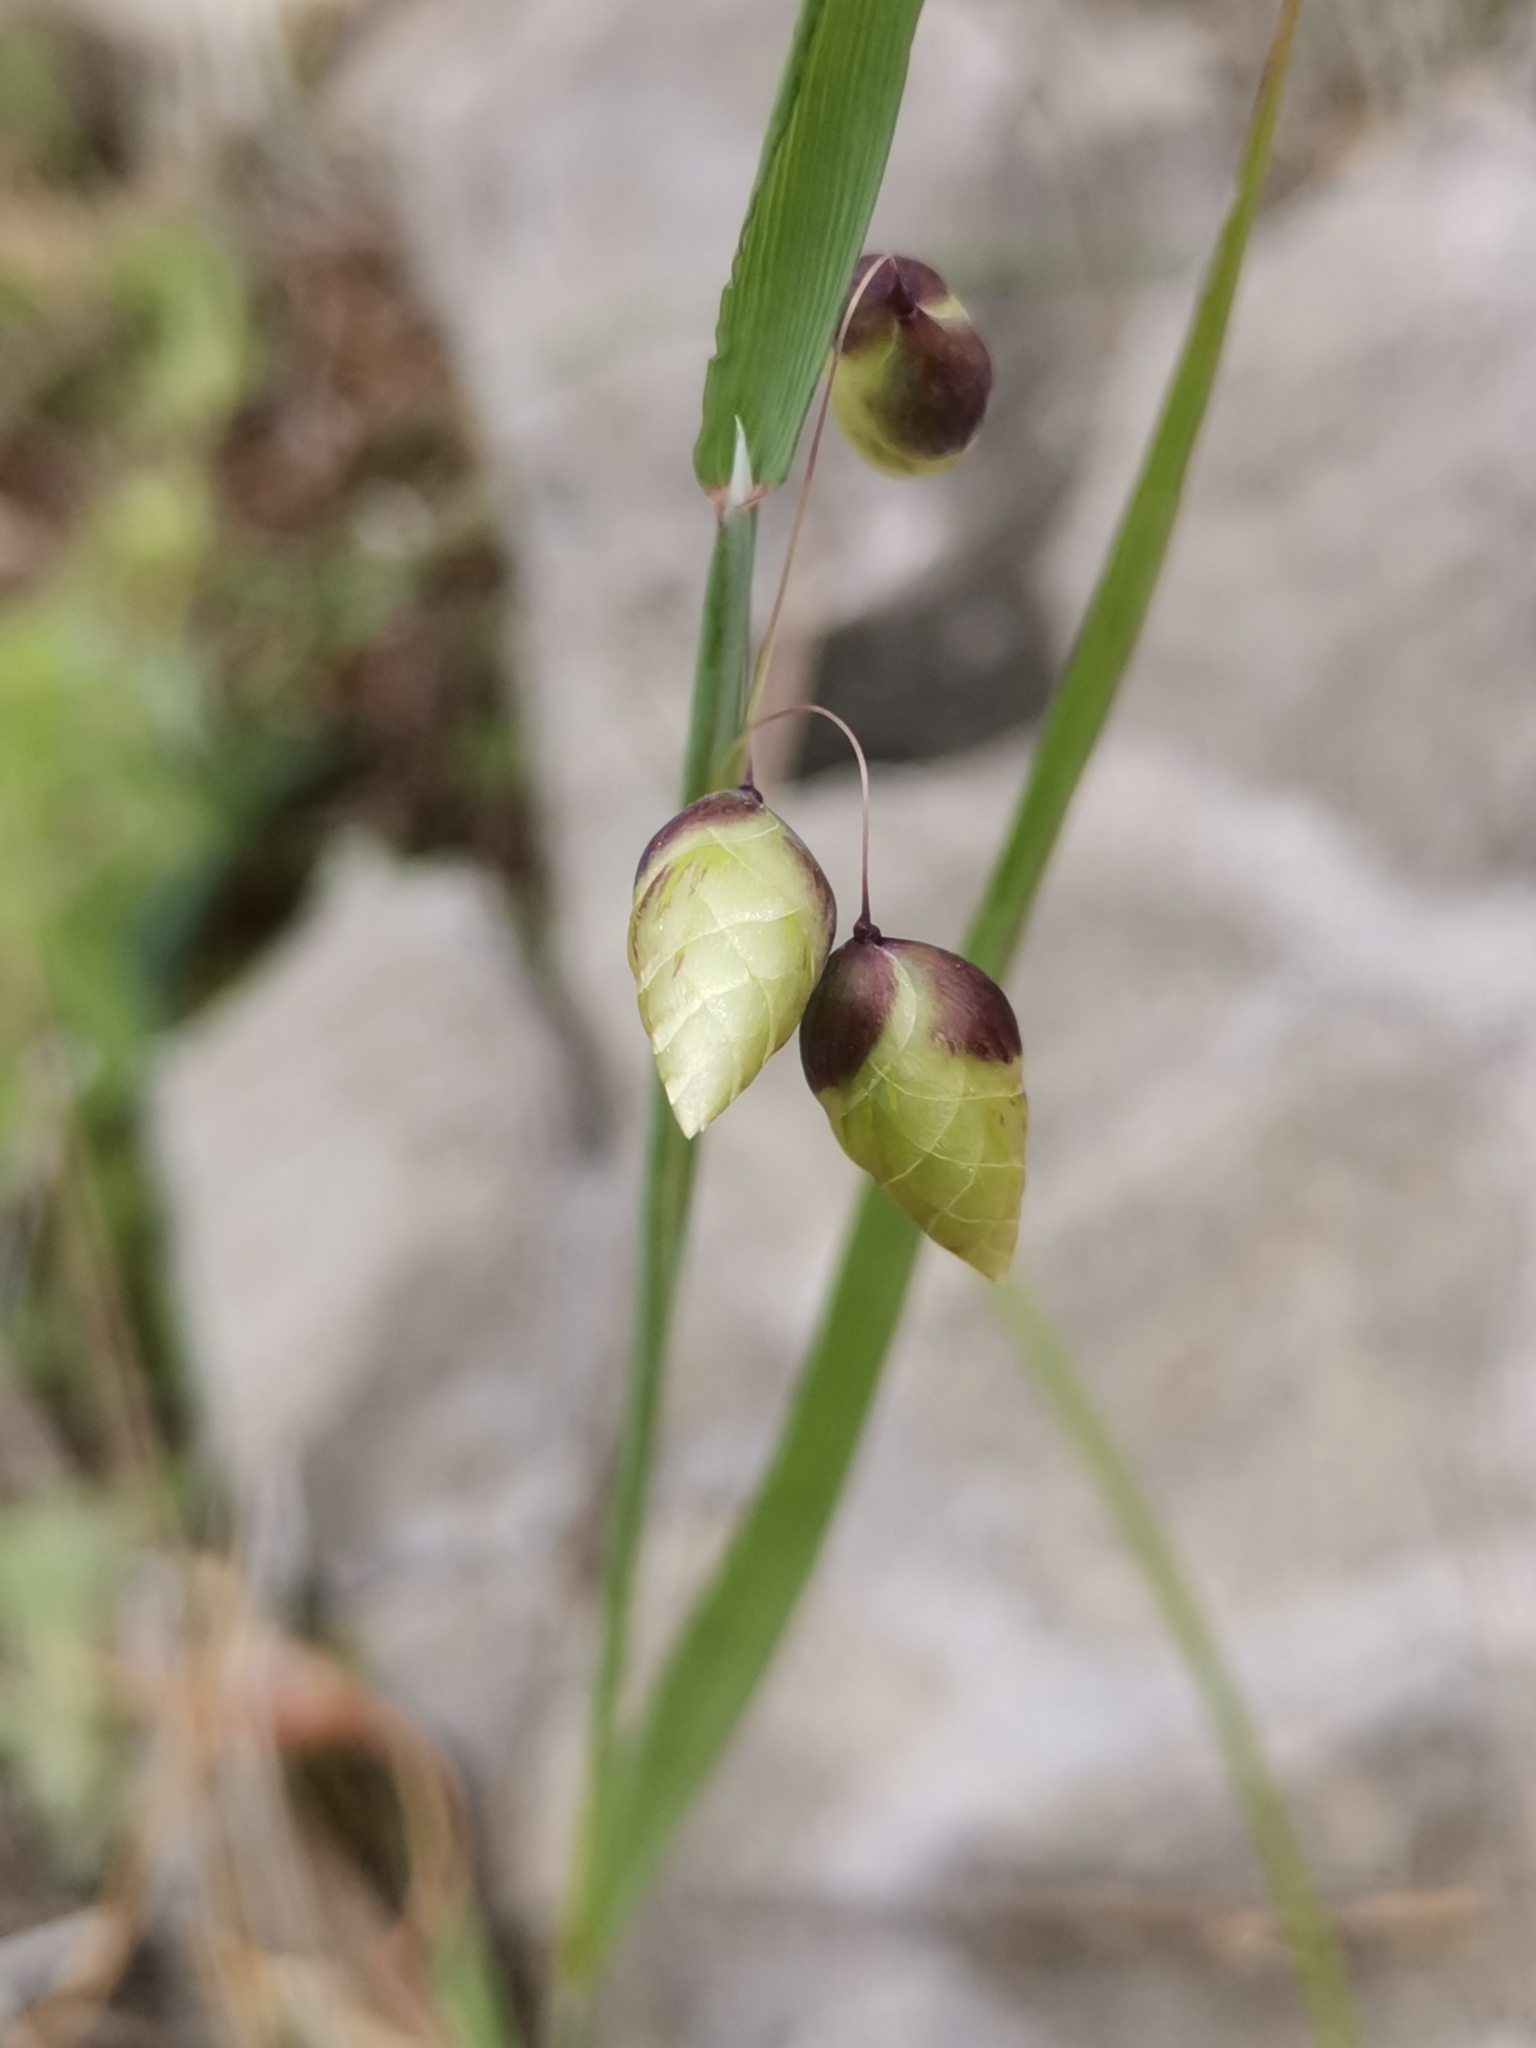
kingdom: Plantae
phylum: Tracheophyta
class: Liliopsida
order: Poales
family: Poaceae
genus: Briza
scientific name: Briza maxima
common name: Big quakinggrass
